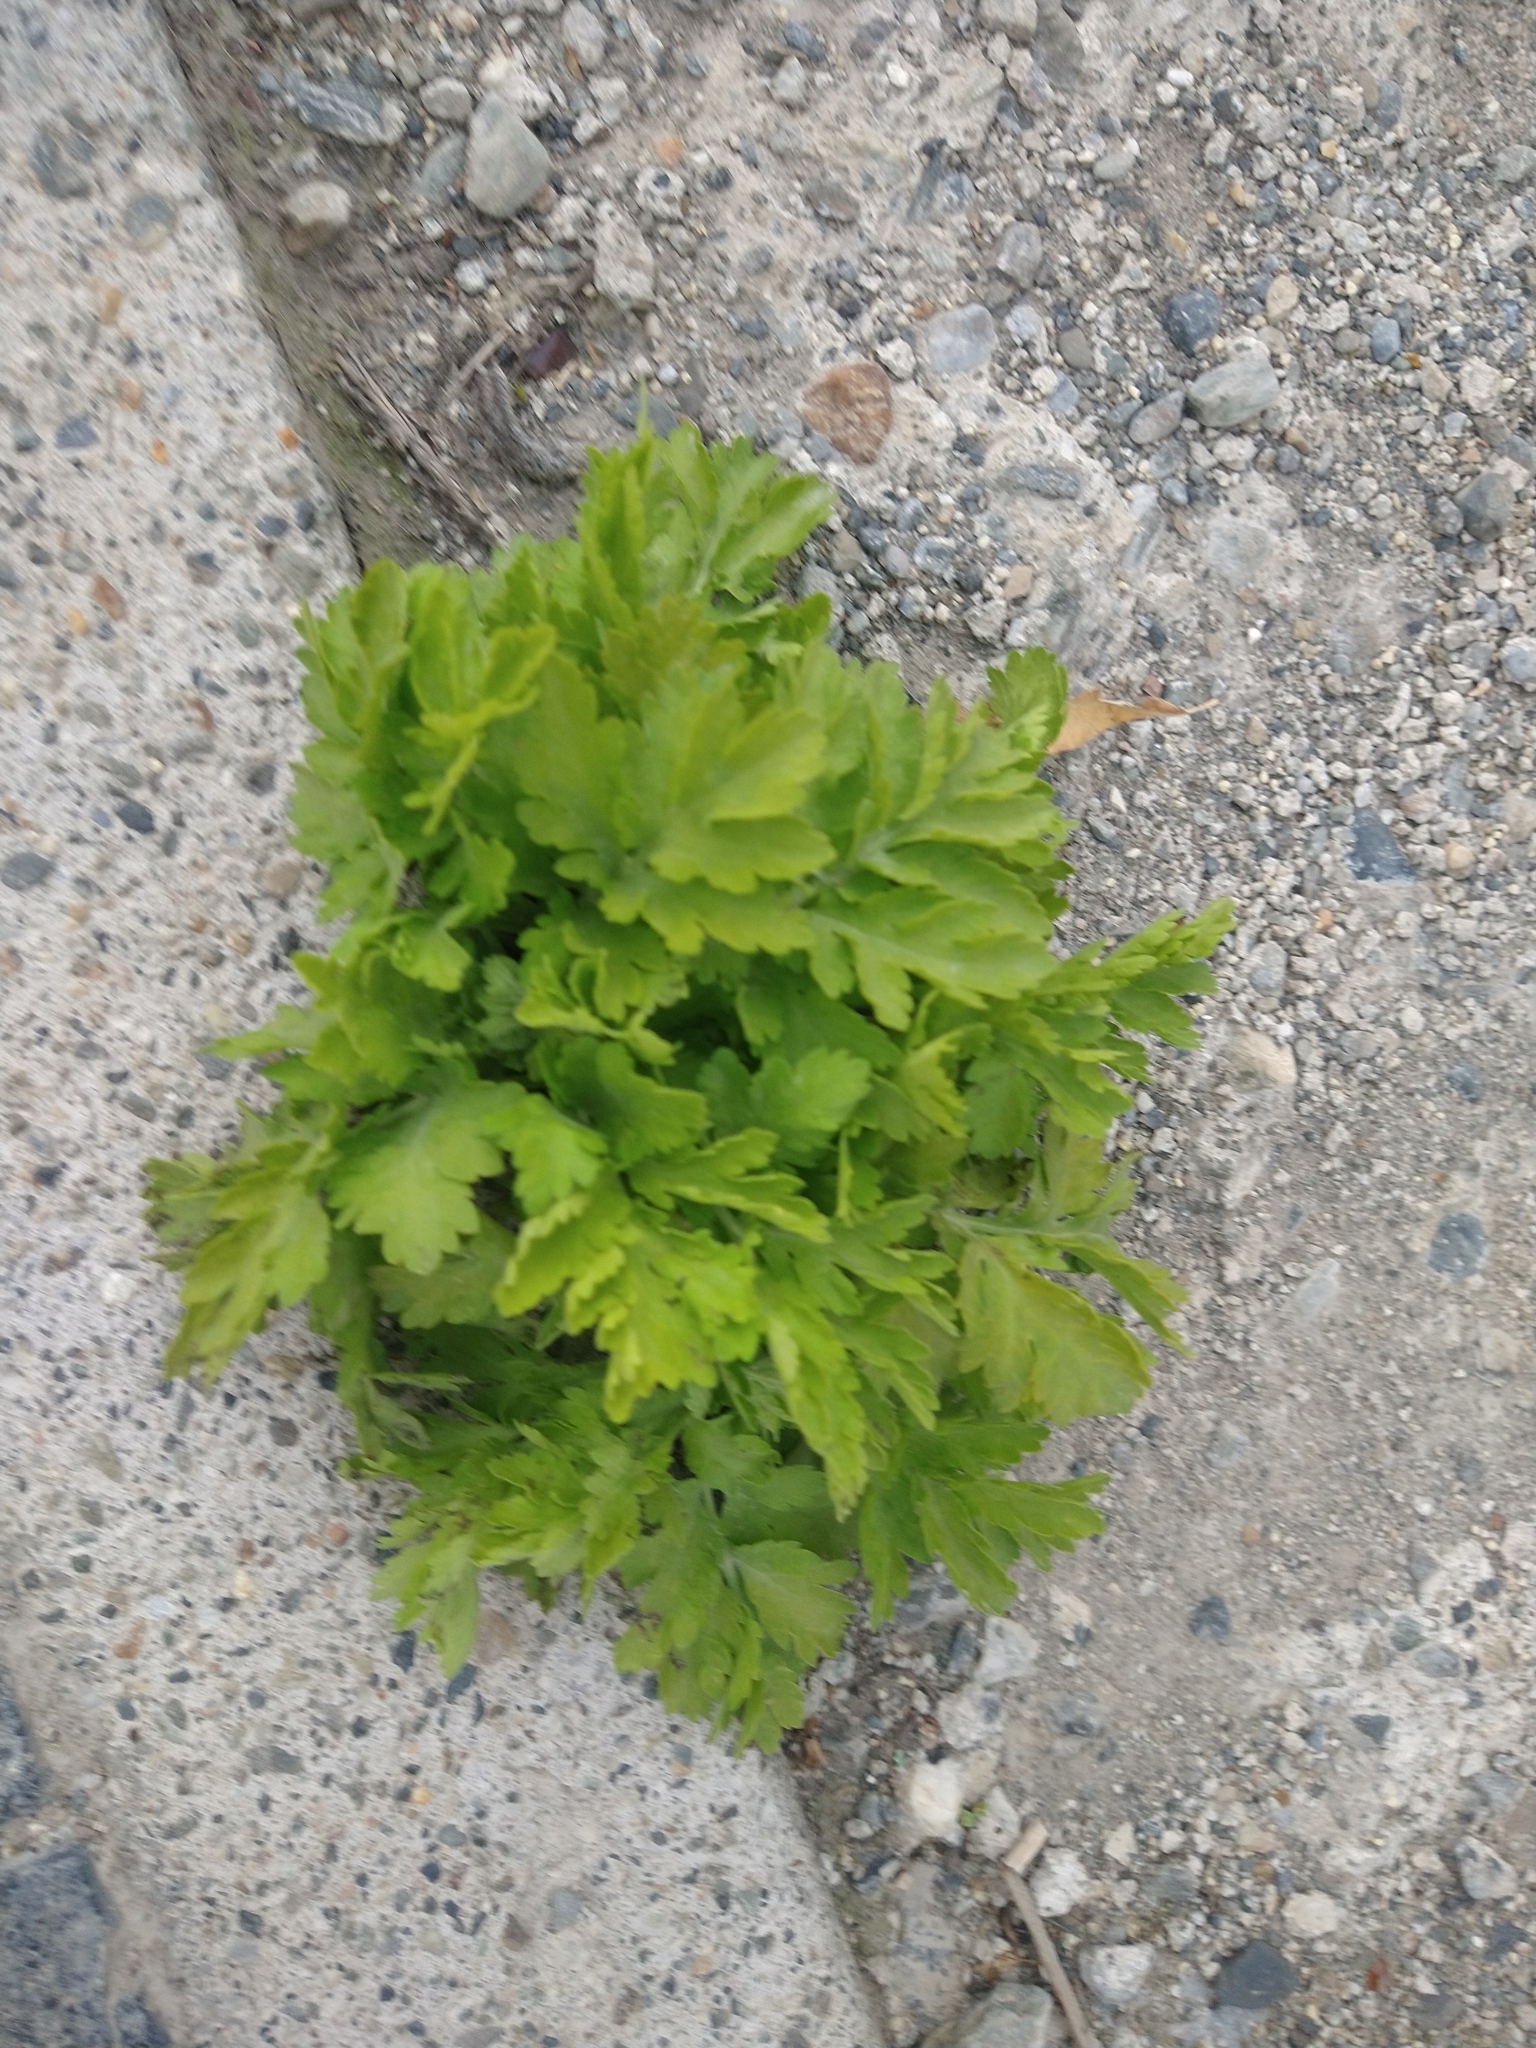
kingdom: Plantae
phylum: Tracheophyta
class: Magnoliopsida
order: Asterales
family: Asteraceae
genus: Tanacetum
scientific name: Tanacetum parthenium
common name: Feverfew
